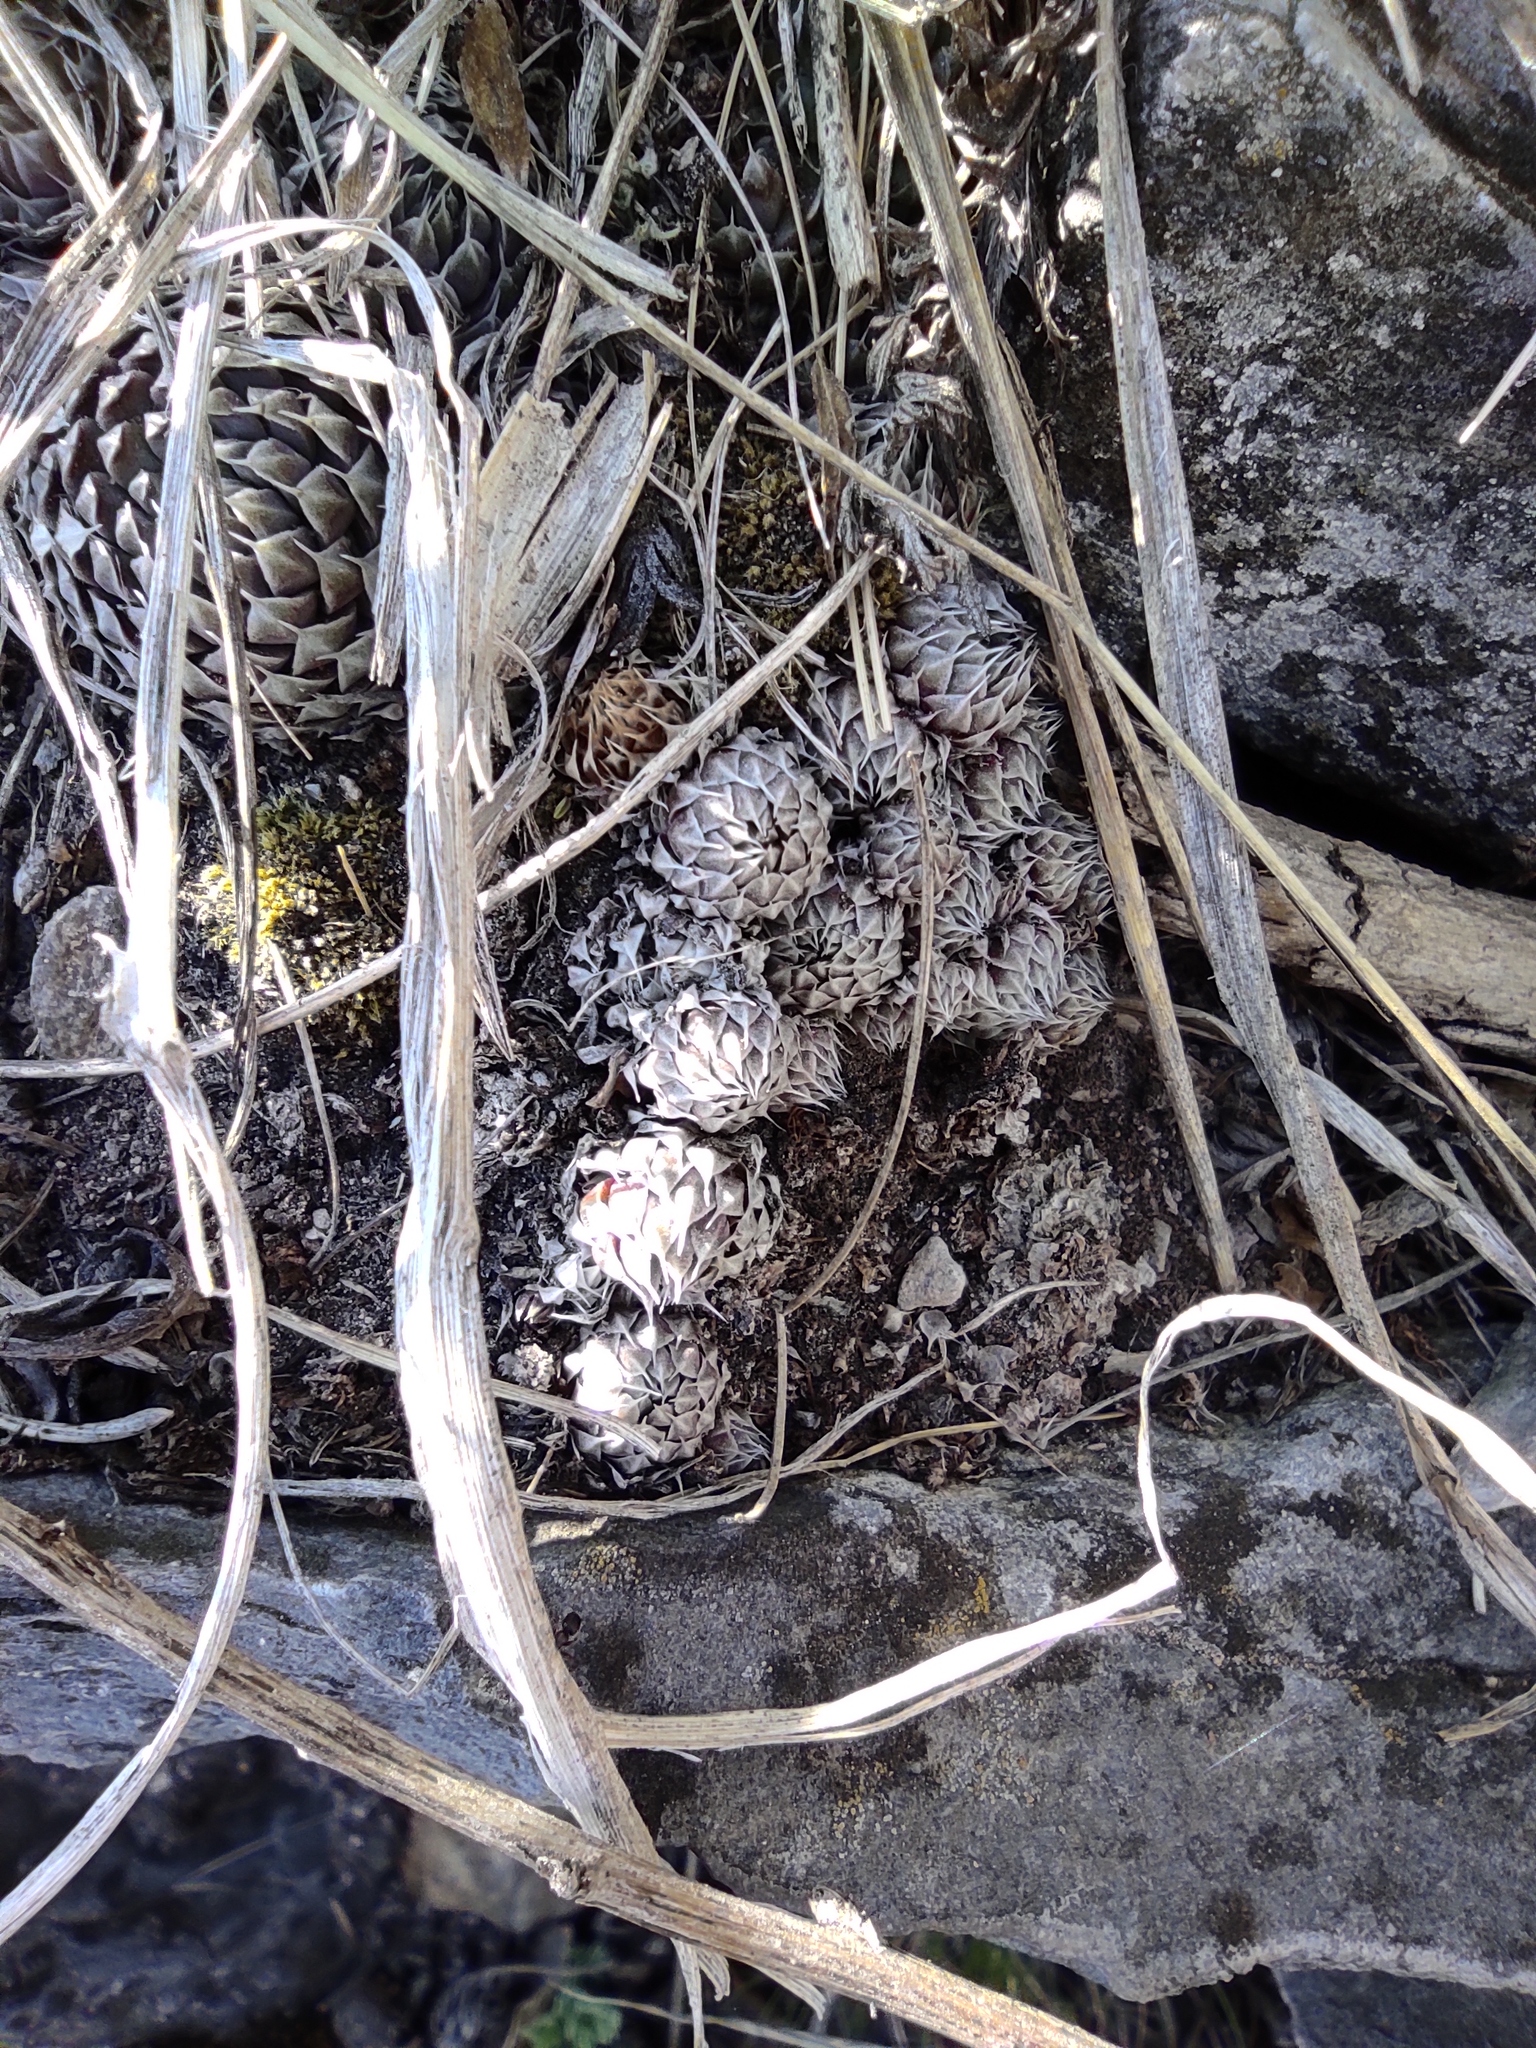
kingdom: Plantae
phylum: Tracheophyta
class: Magnoliopsida
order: Saxifragales
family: Crassulaceae
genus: Orostachys
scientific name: Orostachys spinosa
